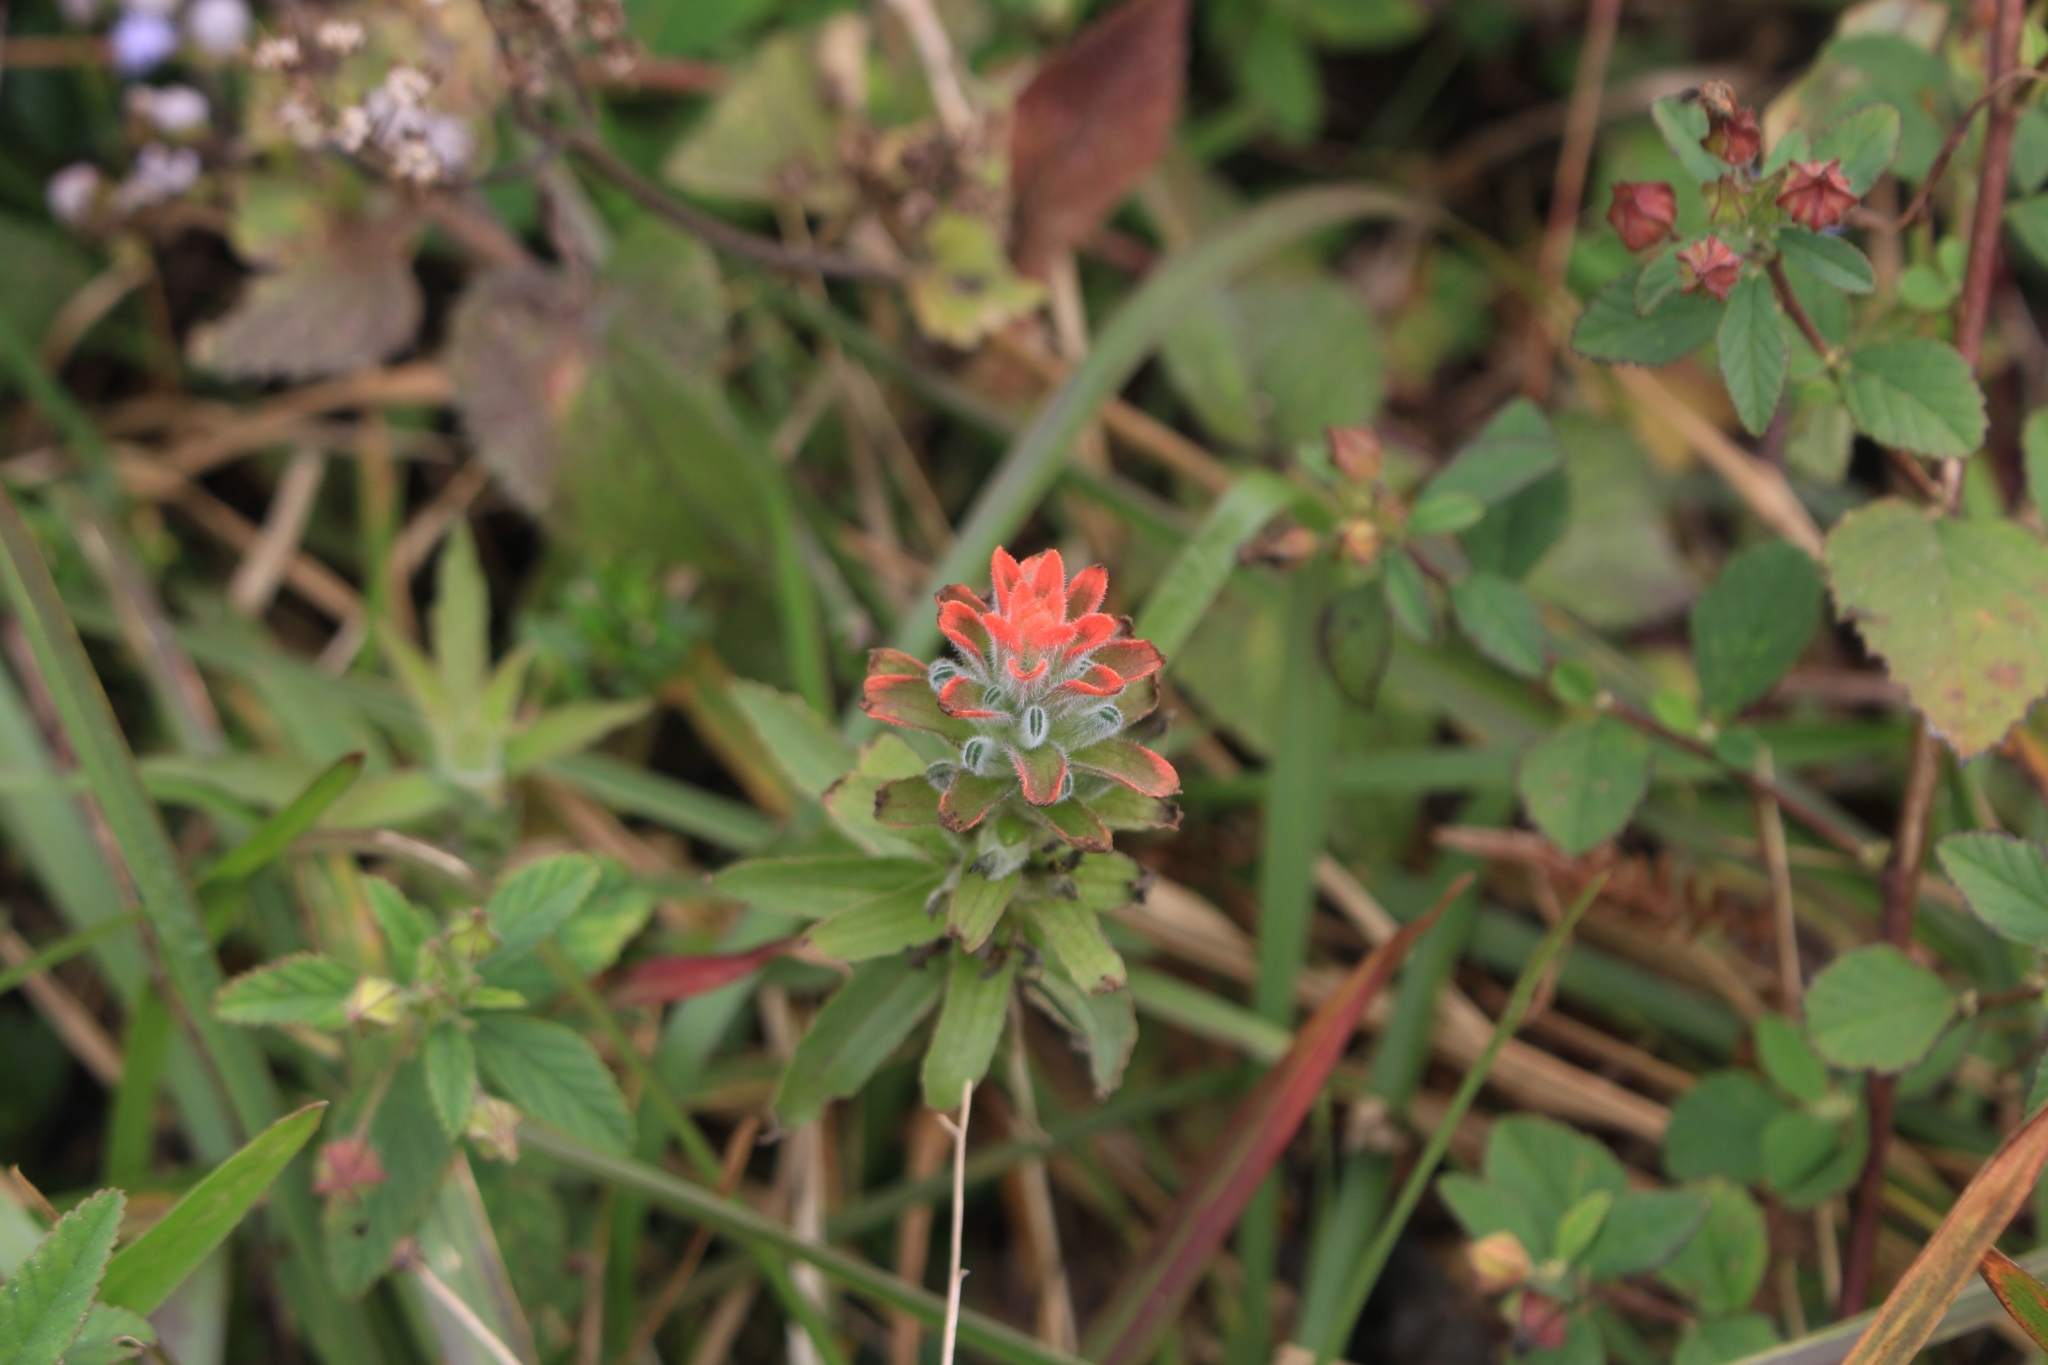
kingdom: Plantae
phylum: Tracheophyta
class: Magnoliopsida
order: Lamiales
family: Orobanchaceae
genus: Castilleja
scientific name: Castilleja arvensis
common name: Indian paintbrush
